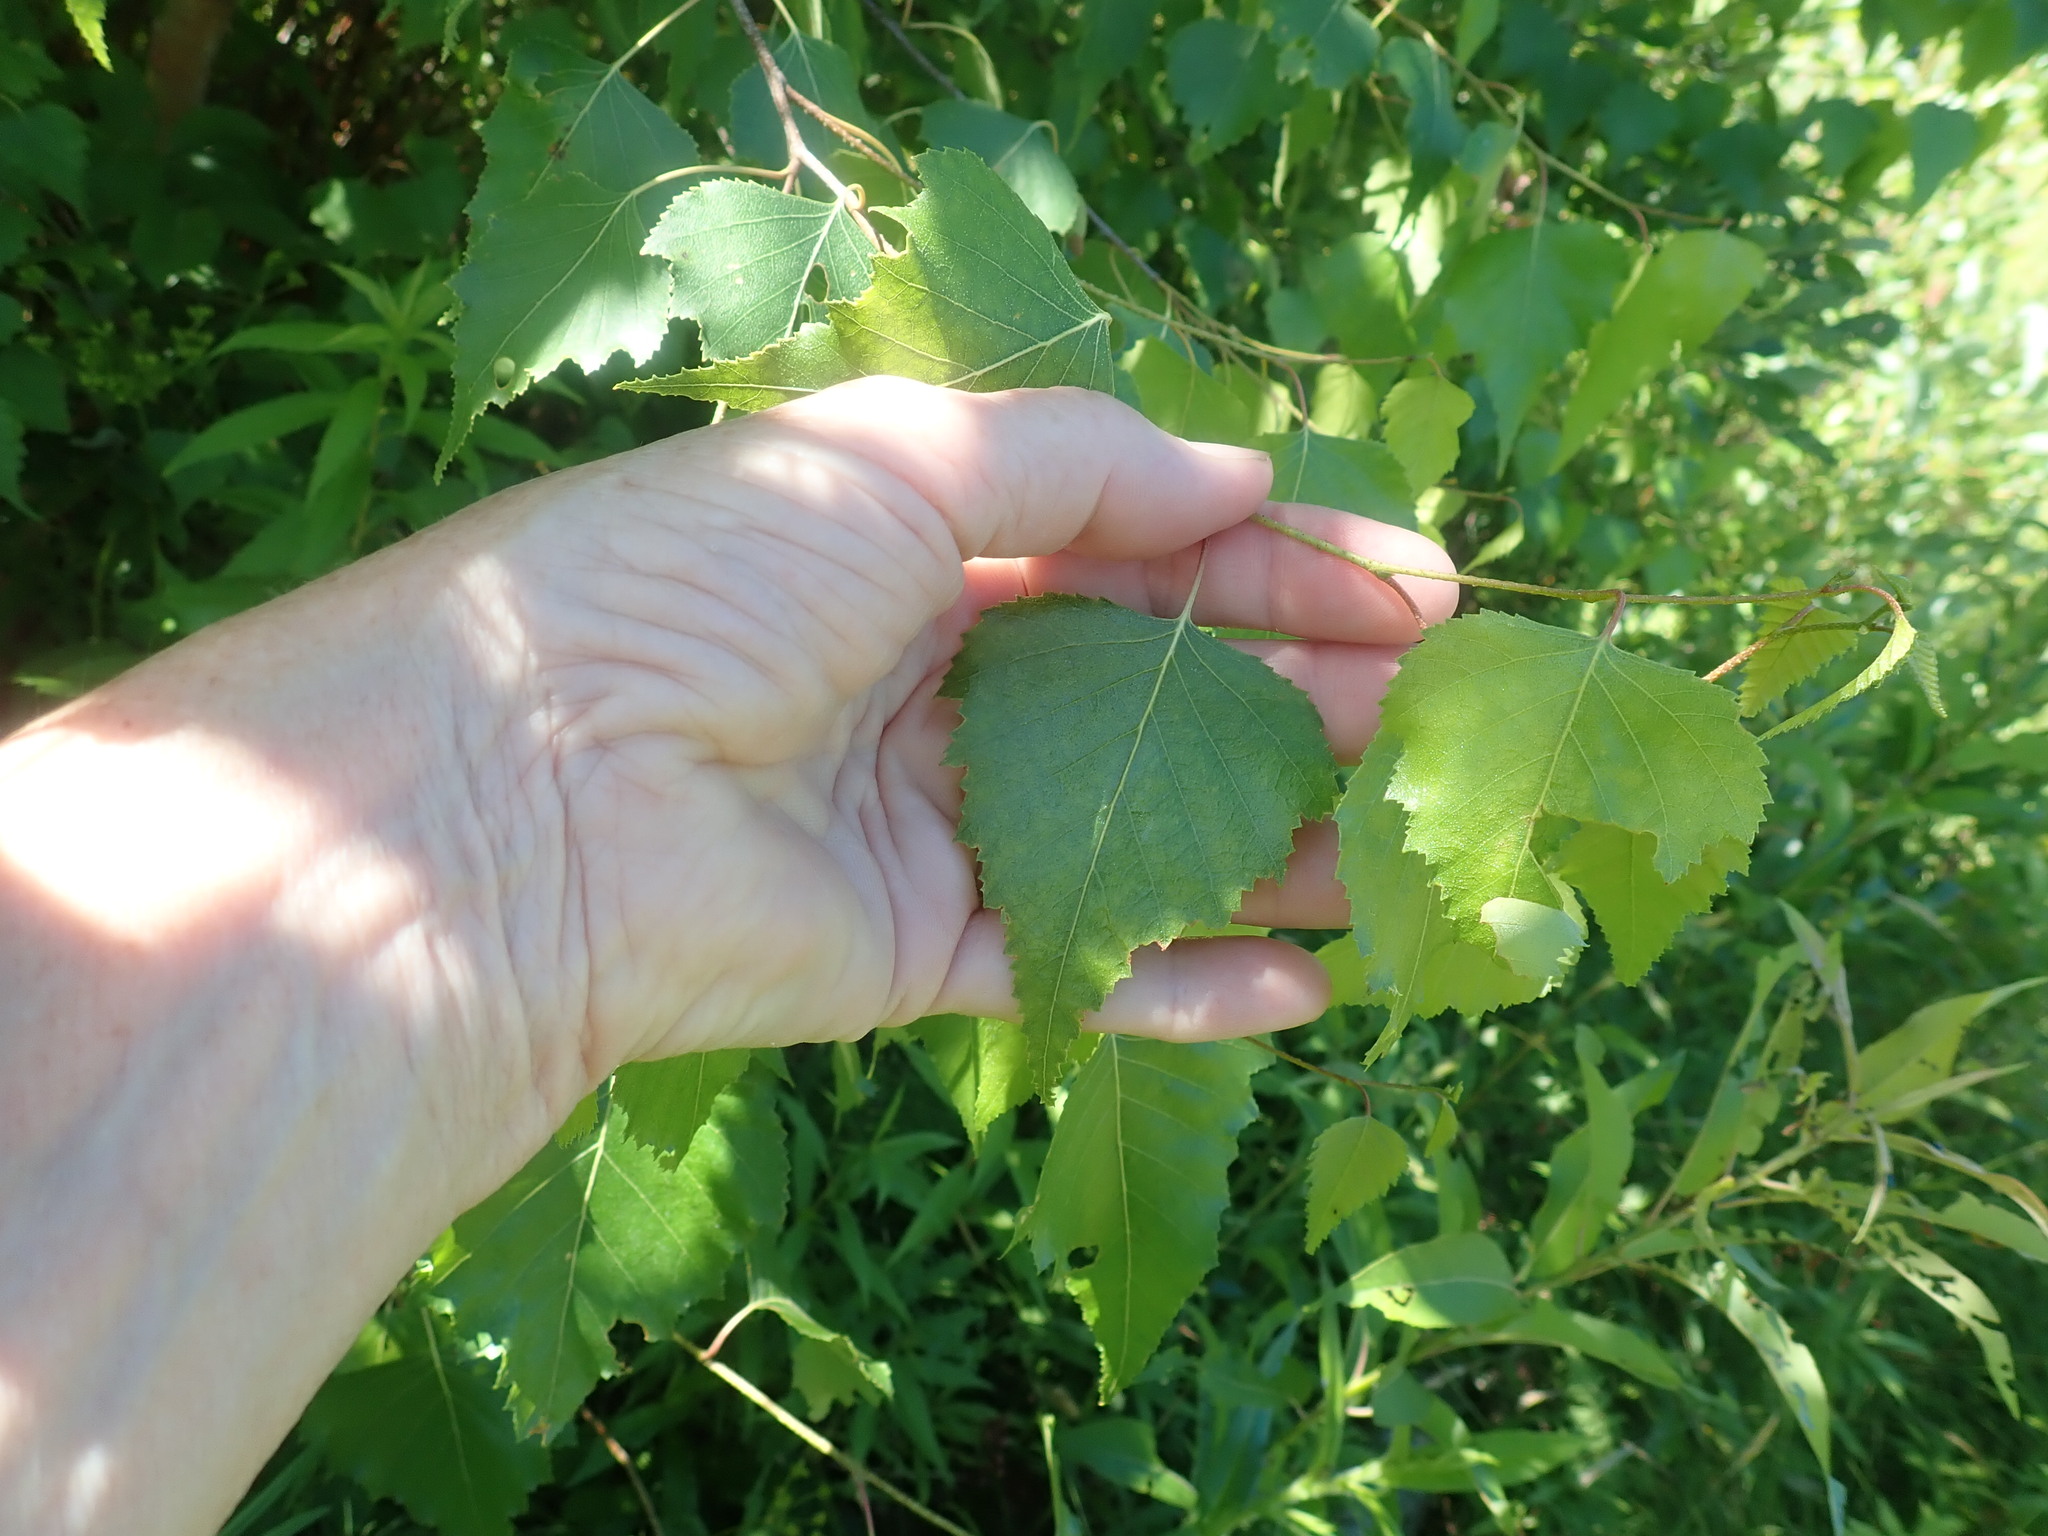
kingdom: Plantae
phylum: Tracheophyta
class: Magnoliopsida
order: Fagales
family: Betulaceae
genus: Betula
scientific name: Betula populifolia
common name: Fire birch
